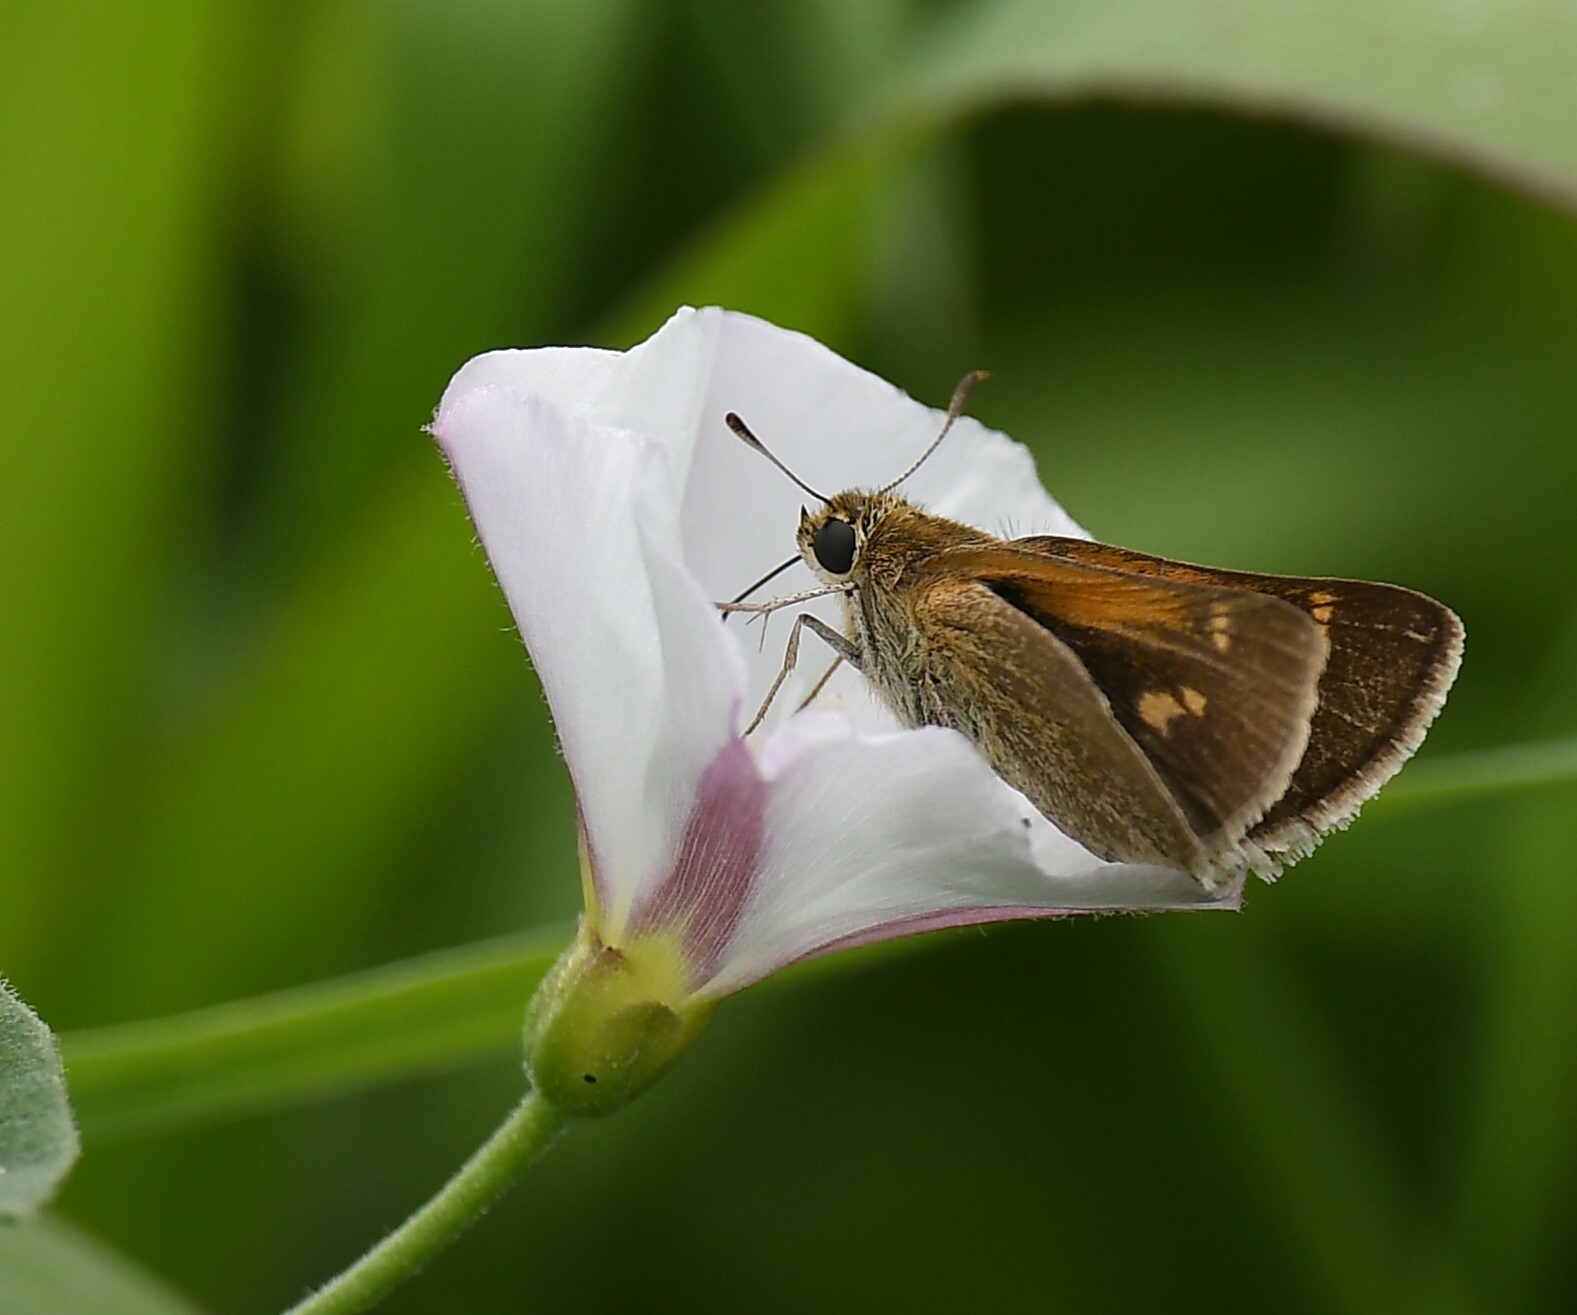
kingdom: Animalia
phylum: Arthropoda
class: Insecta
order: Lepidoptera
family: Hesperiidae
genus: Polites
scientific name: Polites themistocles
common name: Tawny-edged skipper
